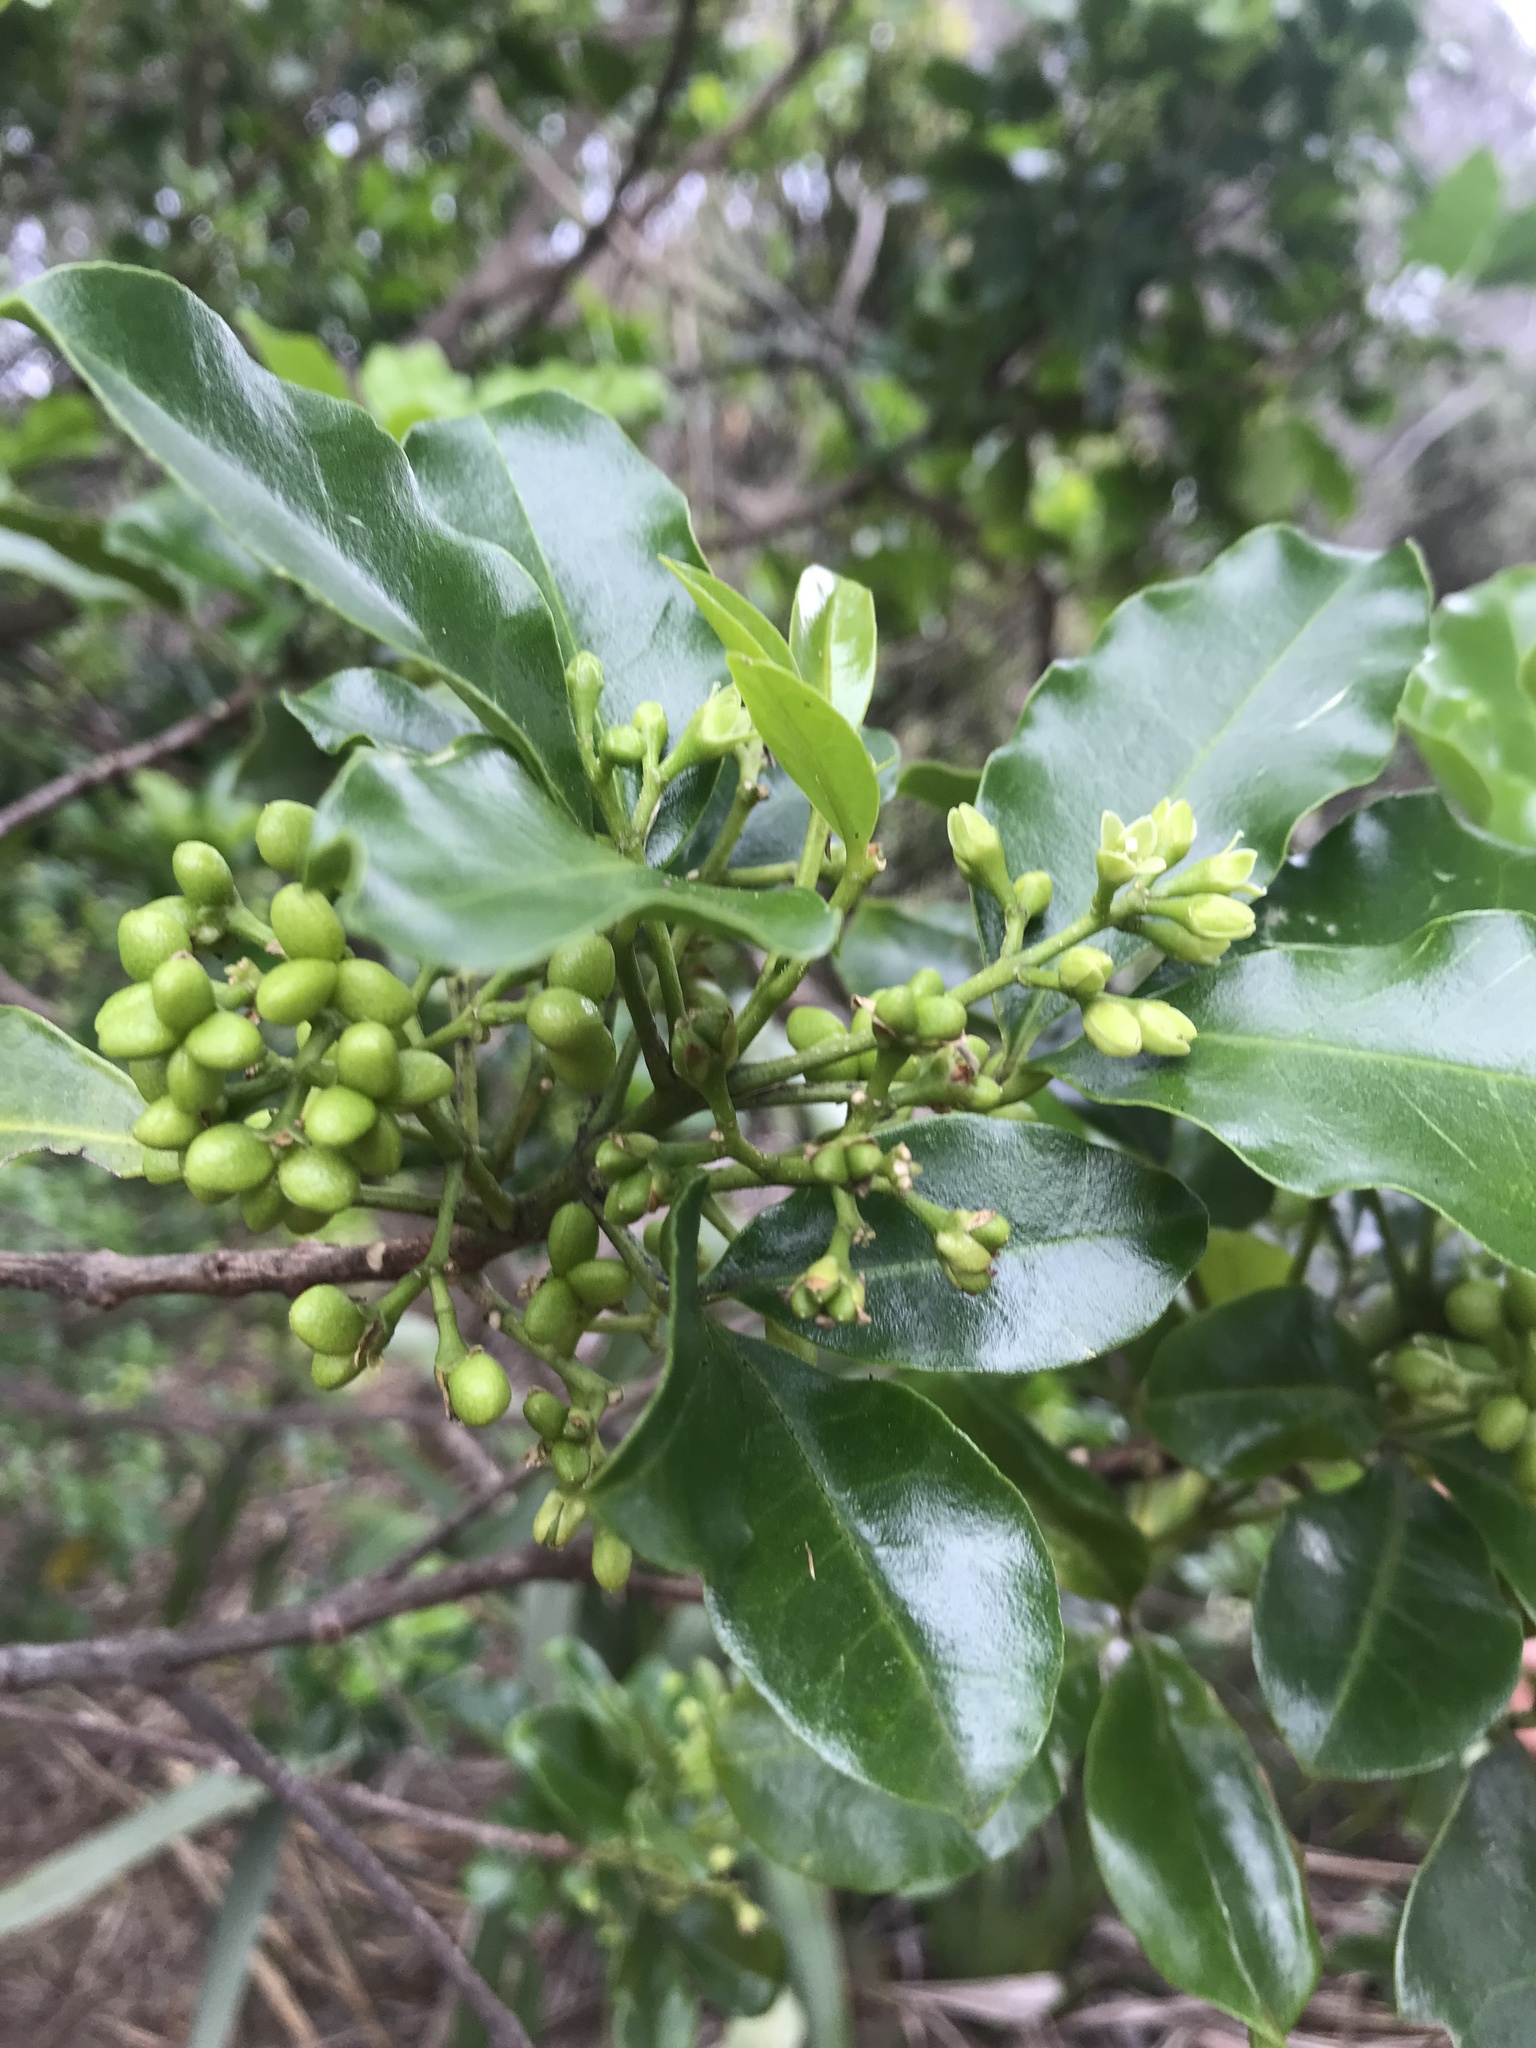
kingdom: Plantae
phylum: Tracheophyta
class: Magnoliopsida
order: Sapindales
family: Rutaceae
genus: Melicope
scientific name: Melicope ternata
